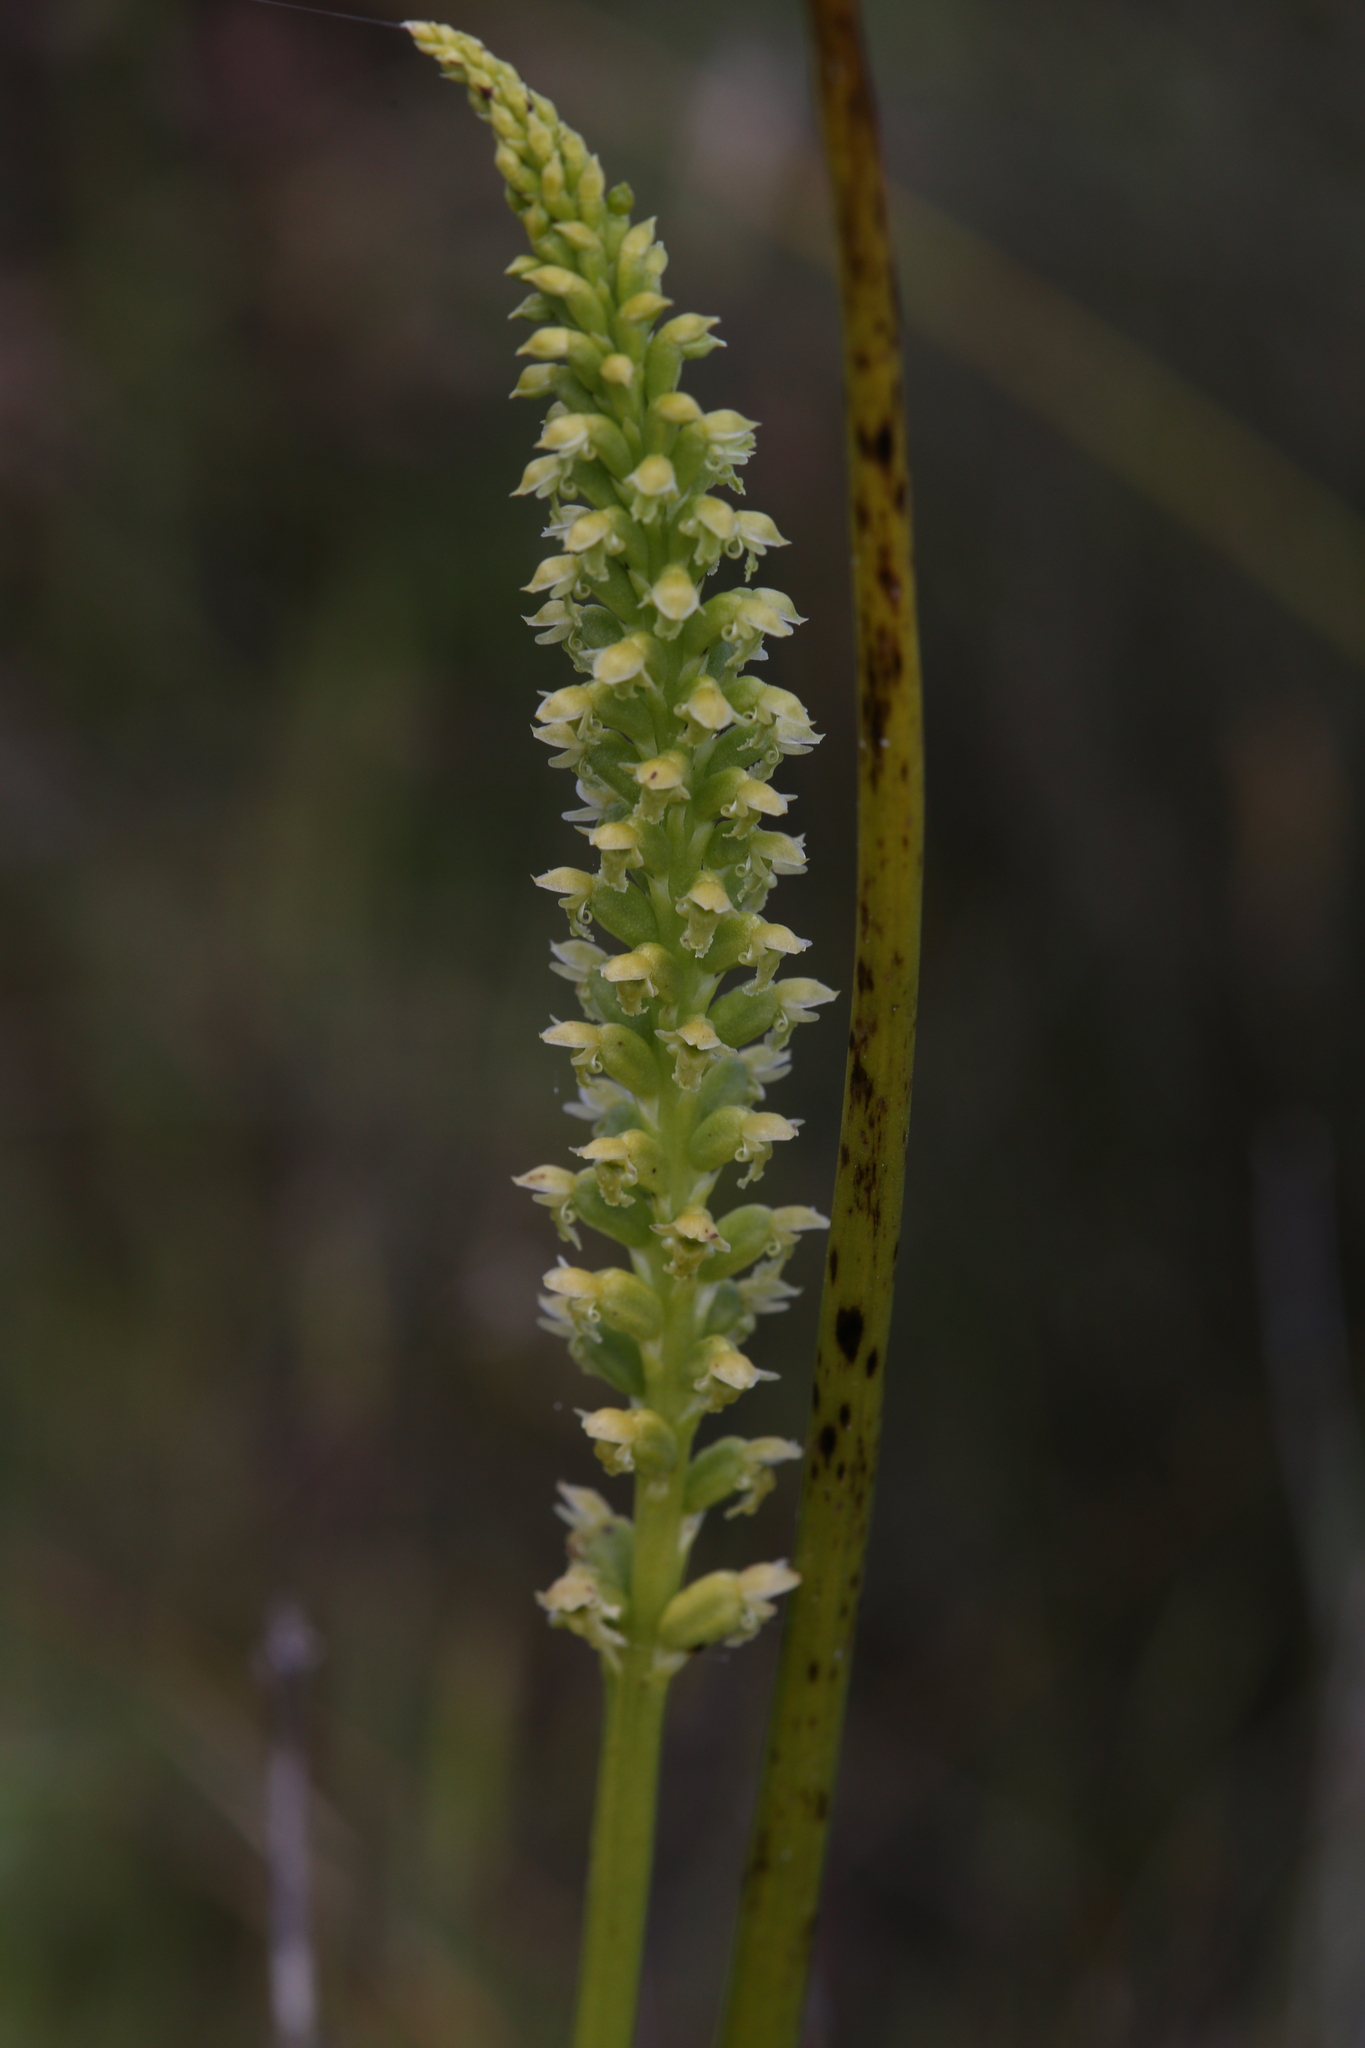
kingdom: Plantae
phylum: Tracheophyta
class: Liliopsida
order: Asparagales
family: Orchidaceae
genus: Microtis
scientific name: Microtis media
